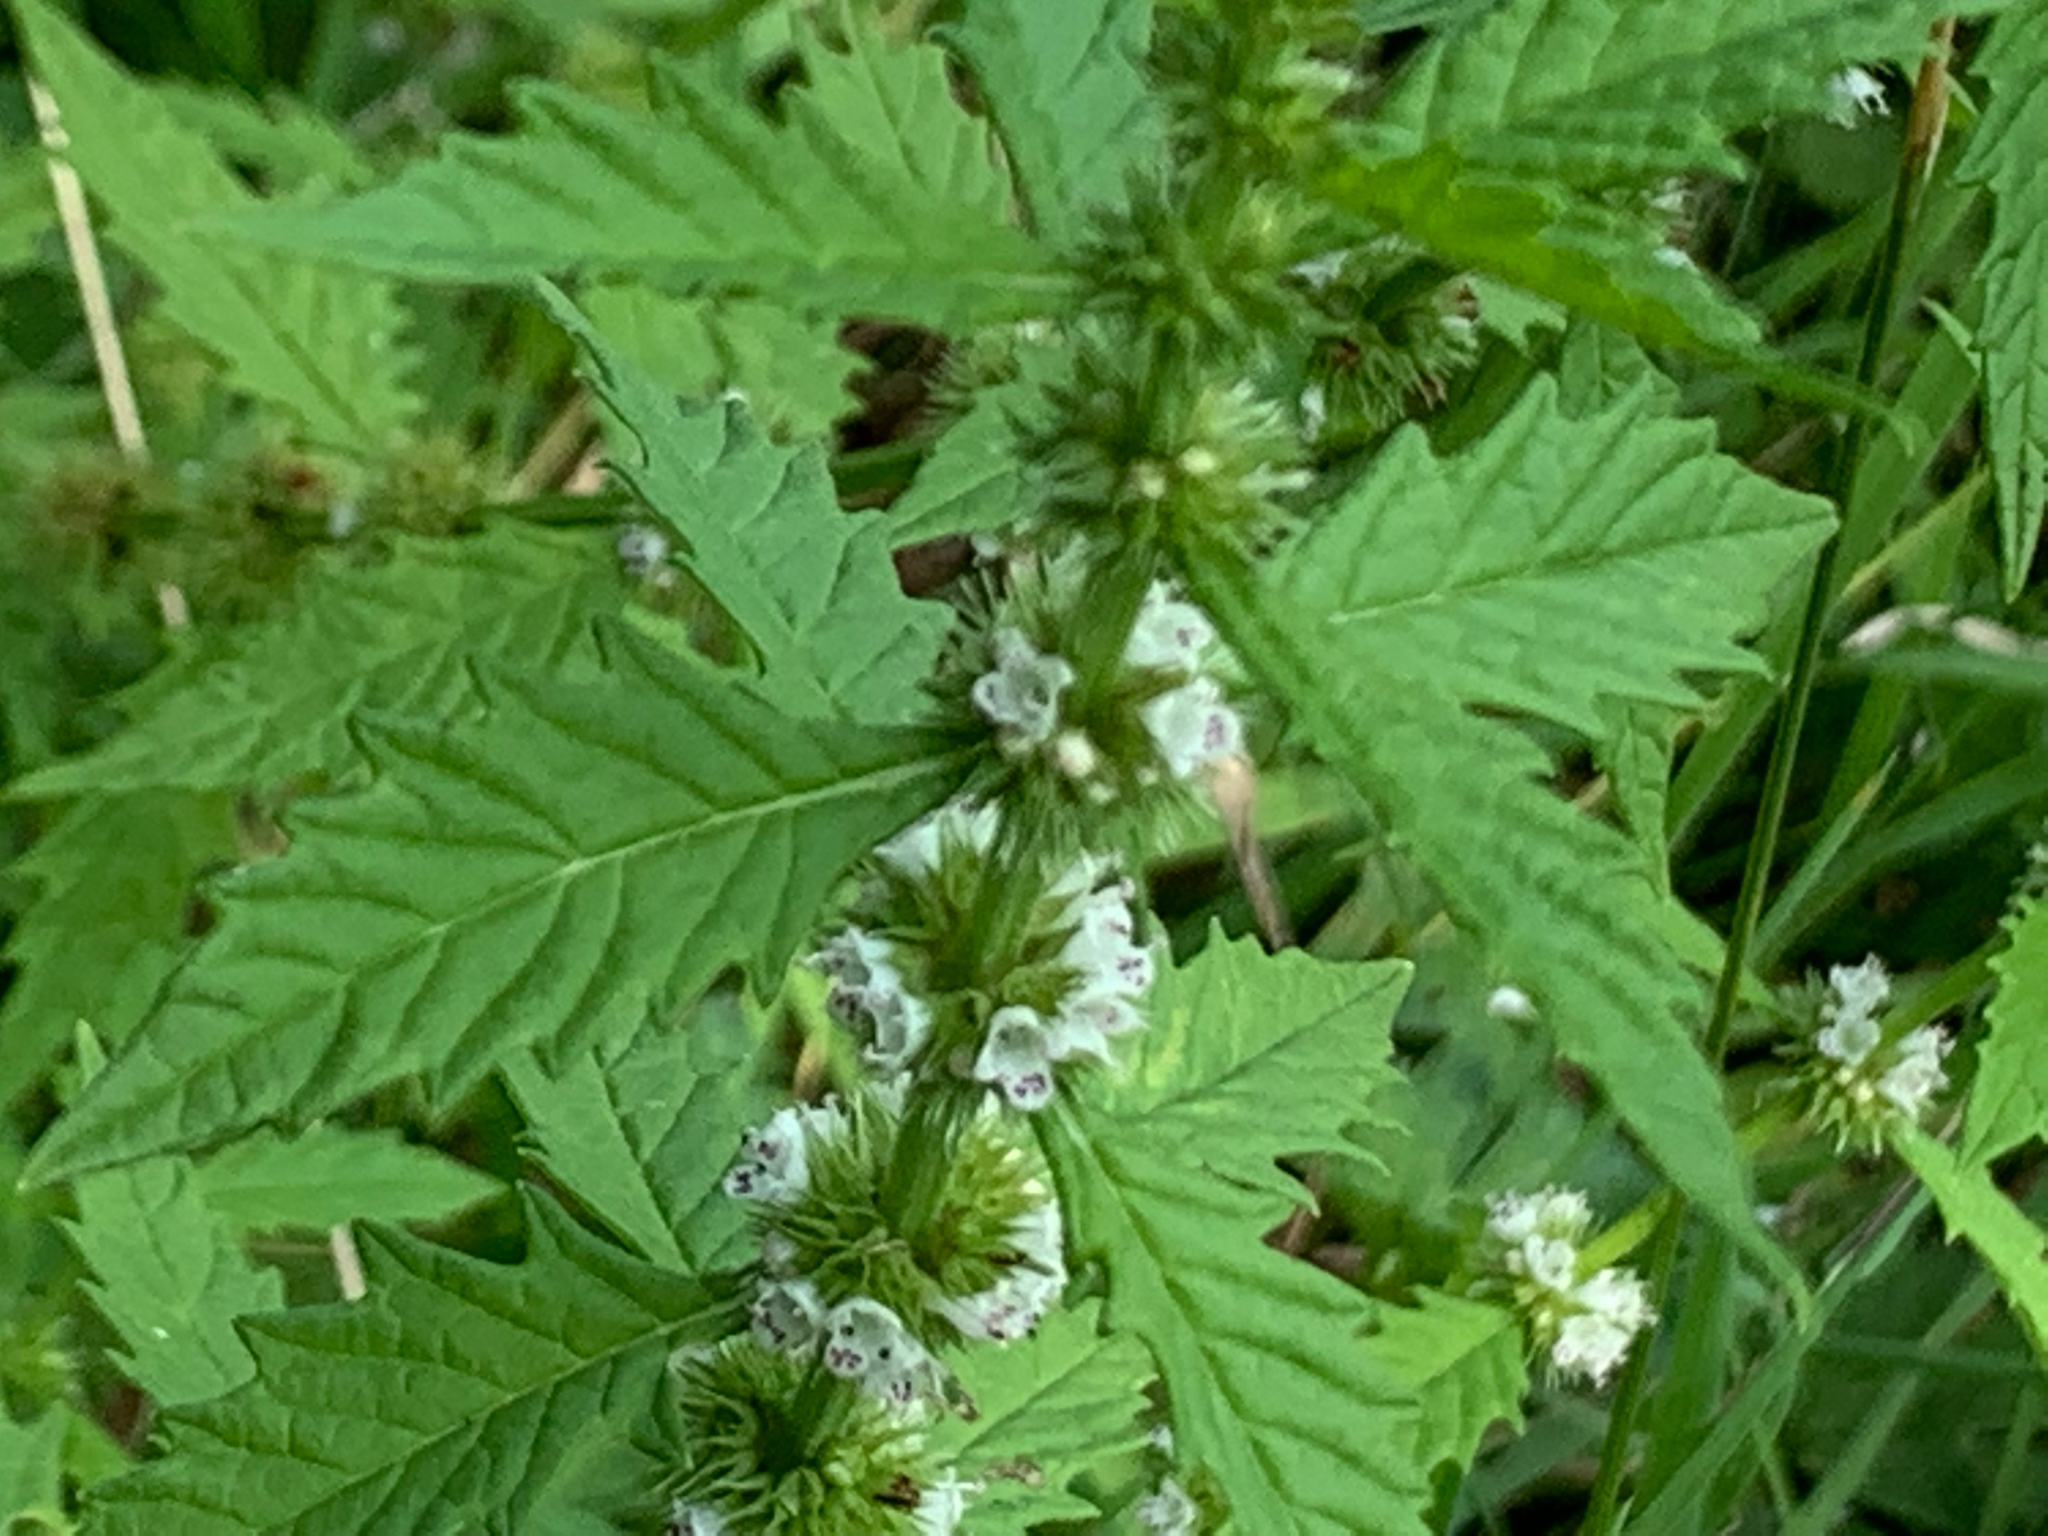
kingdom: Plantae
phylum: Tracheophyta
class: Magnoliopsida
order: Lamiales
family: Lamiaceae
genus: Lycopus
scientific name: Lycopus europaeus
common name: European bugleweed
